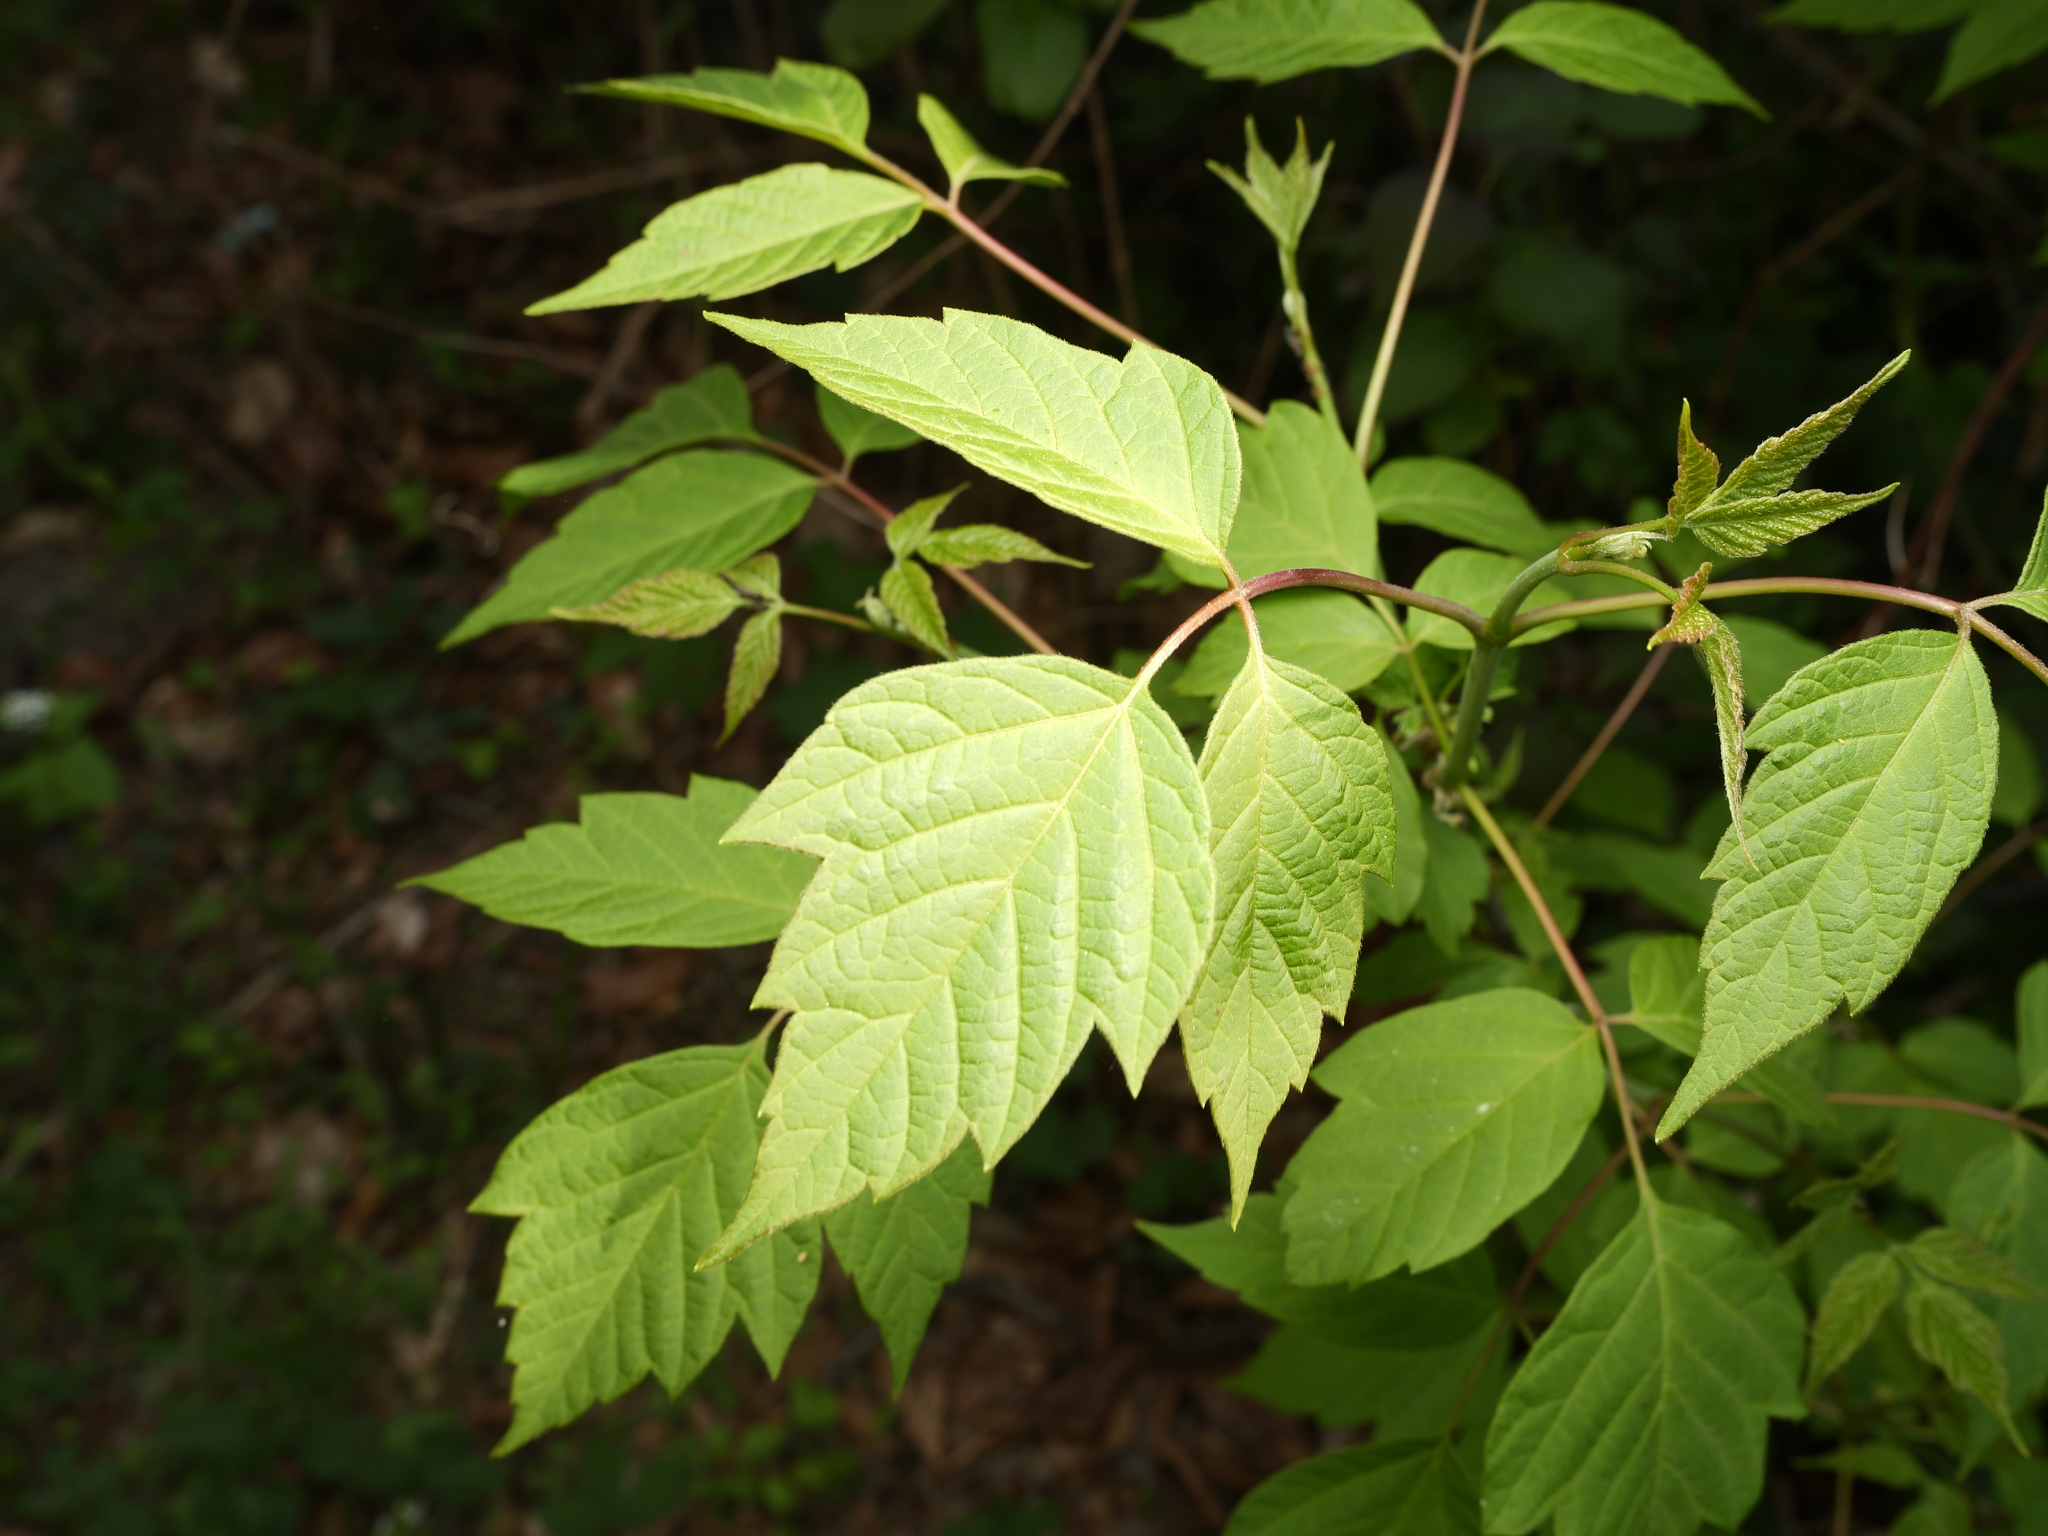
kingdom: Plantae
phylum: Tracheophyta
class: Magnoliopsida
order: Sapindales
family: Sapindaceae
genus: Acer
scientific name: Acer negundo
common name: Ashleaf maple
